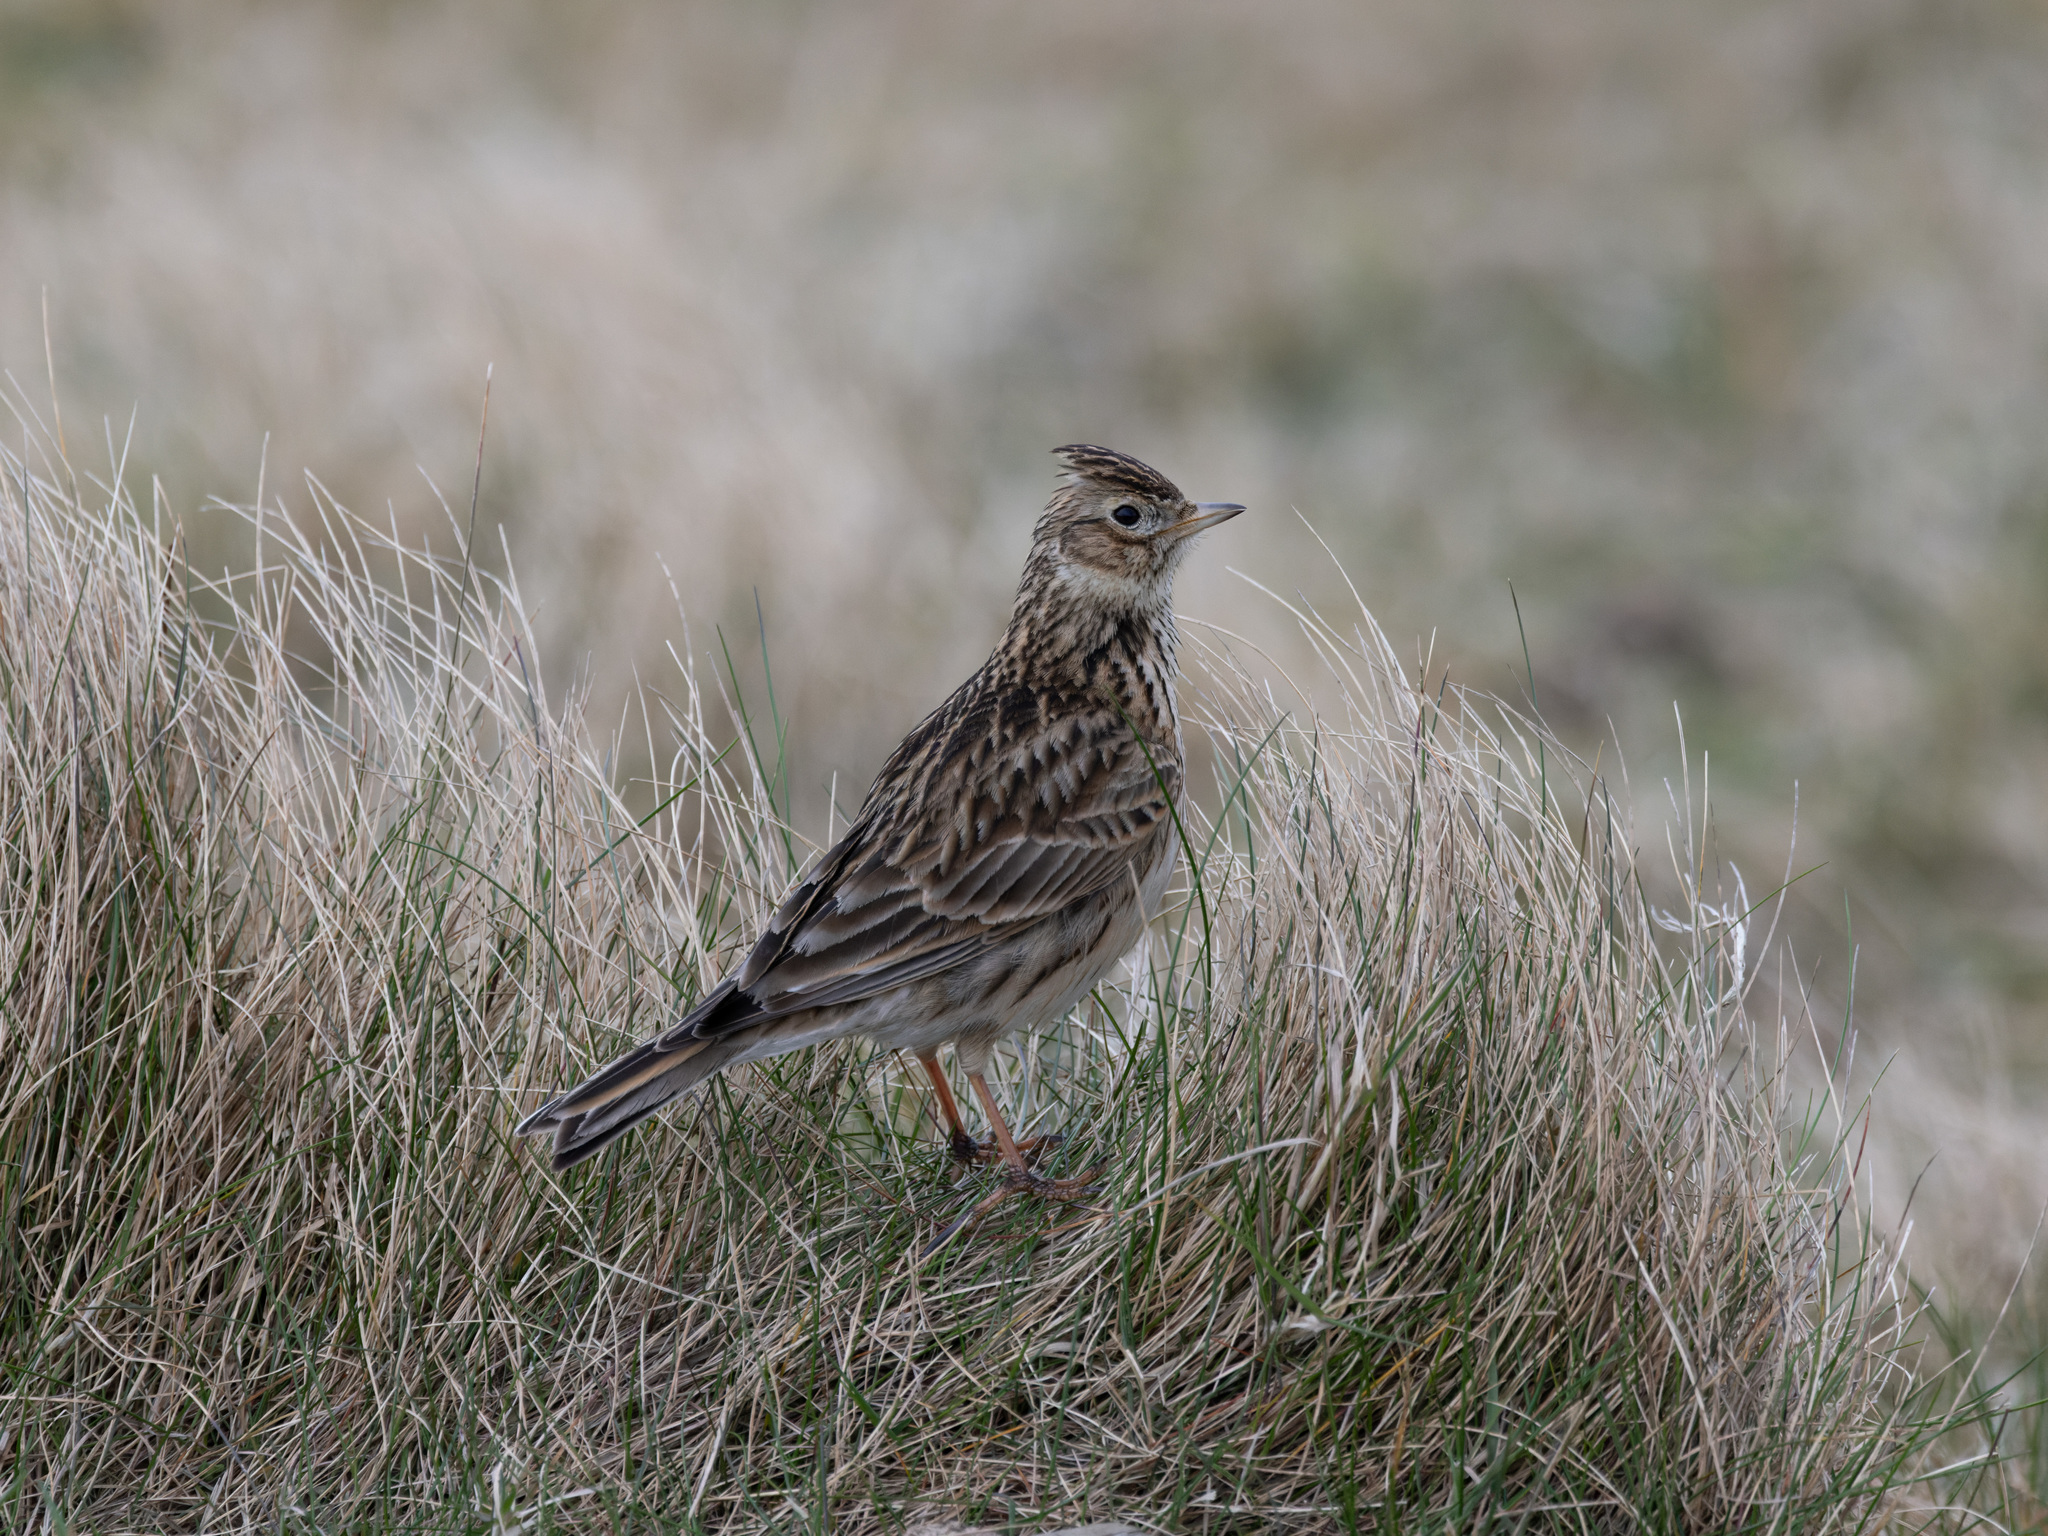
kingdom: Animalia
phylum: Chordata
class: Aves
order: Passeriformes
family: Alaudidae
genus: Alauda
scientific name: Alauda arvensis
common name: Eurasian skylark
